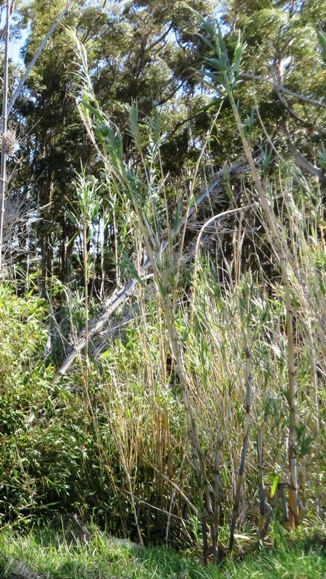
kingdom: Plantae
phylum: Tracheophyta
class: Liliopsida
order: Poales
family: Poaceae
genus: Arundo
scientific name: Arundo donax
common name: Giant reed
